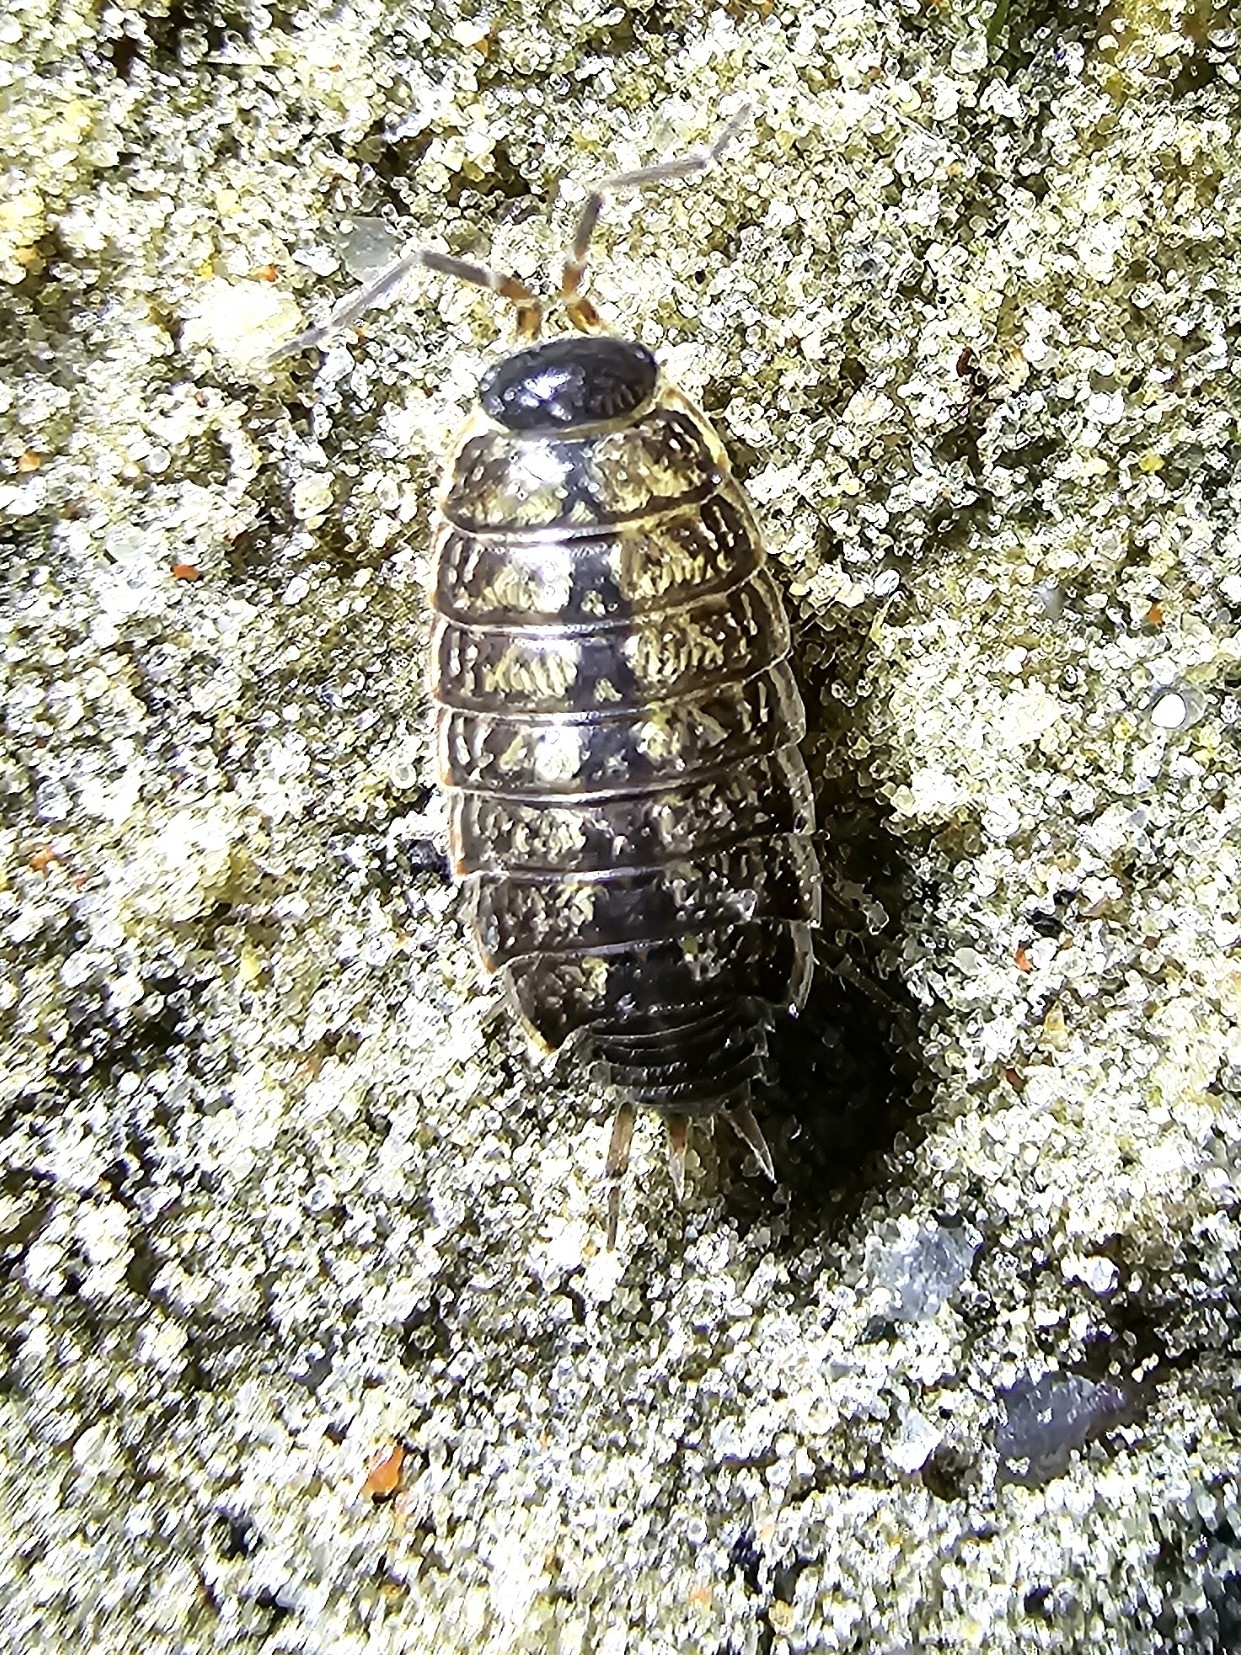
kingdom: Animalia
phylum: Arthropoda
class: Malacostraca
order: Isopoda
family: Philosciidae
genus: Philoscia
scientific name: Philoscia muscorum
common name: Common striped woodlouse
